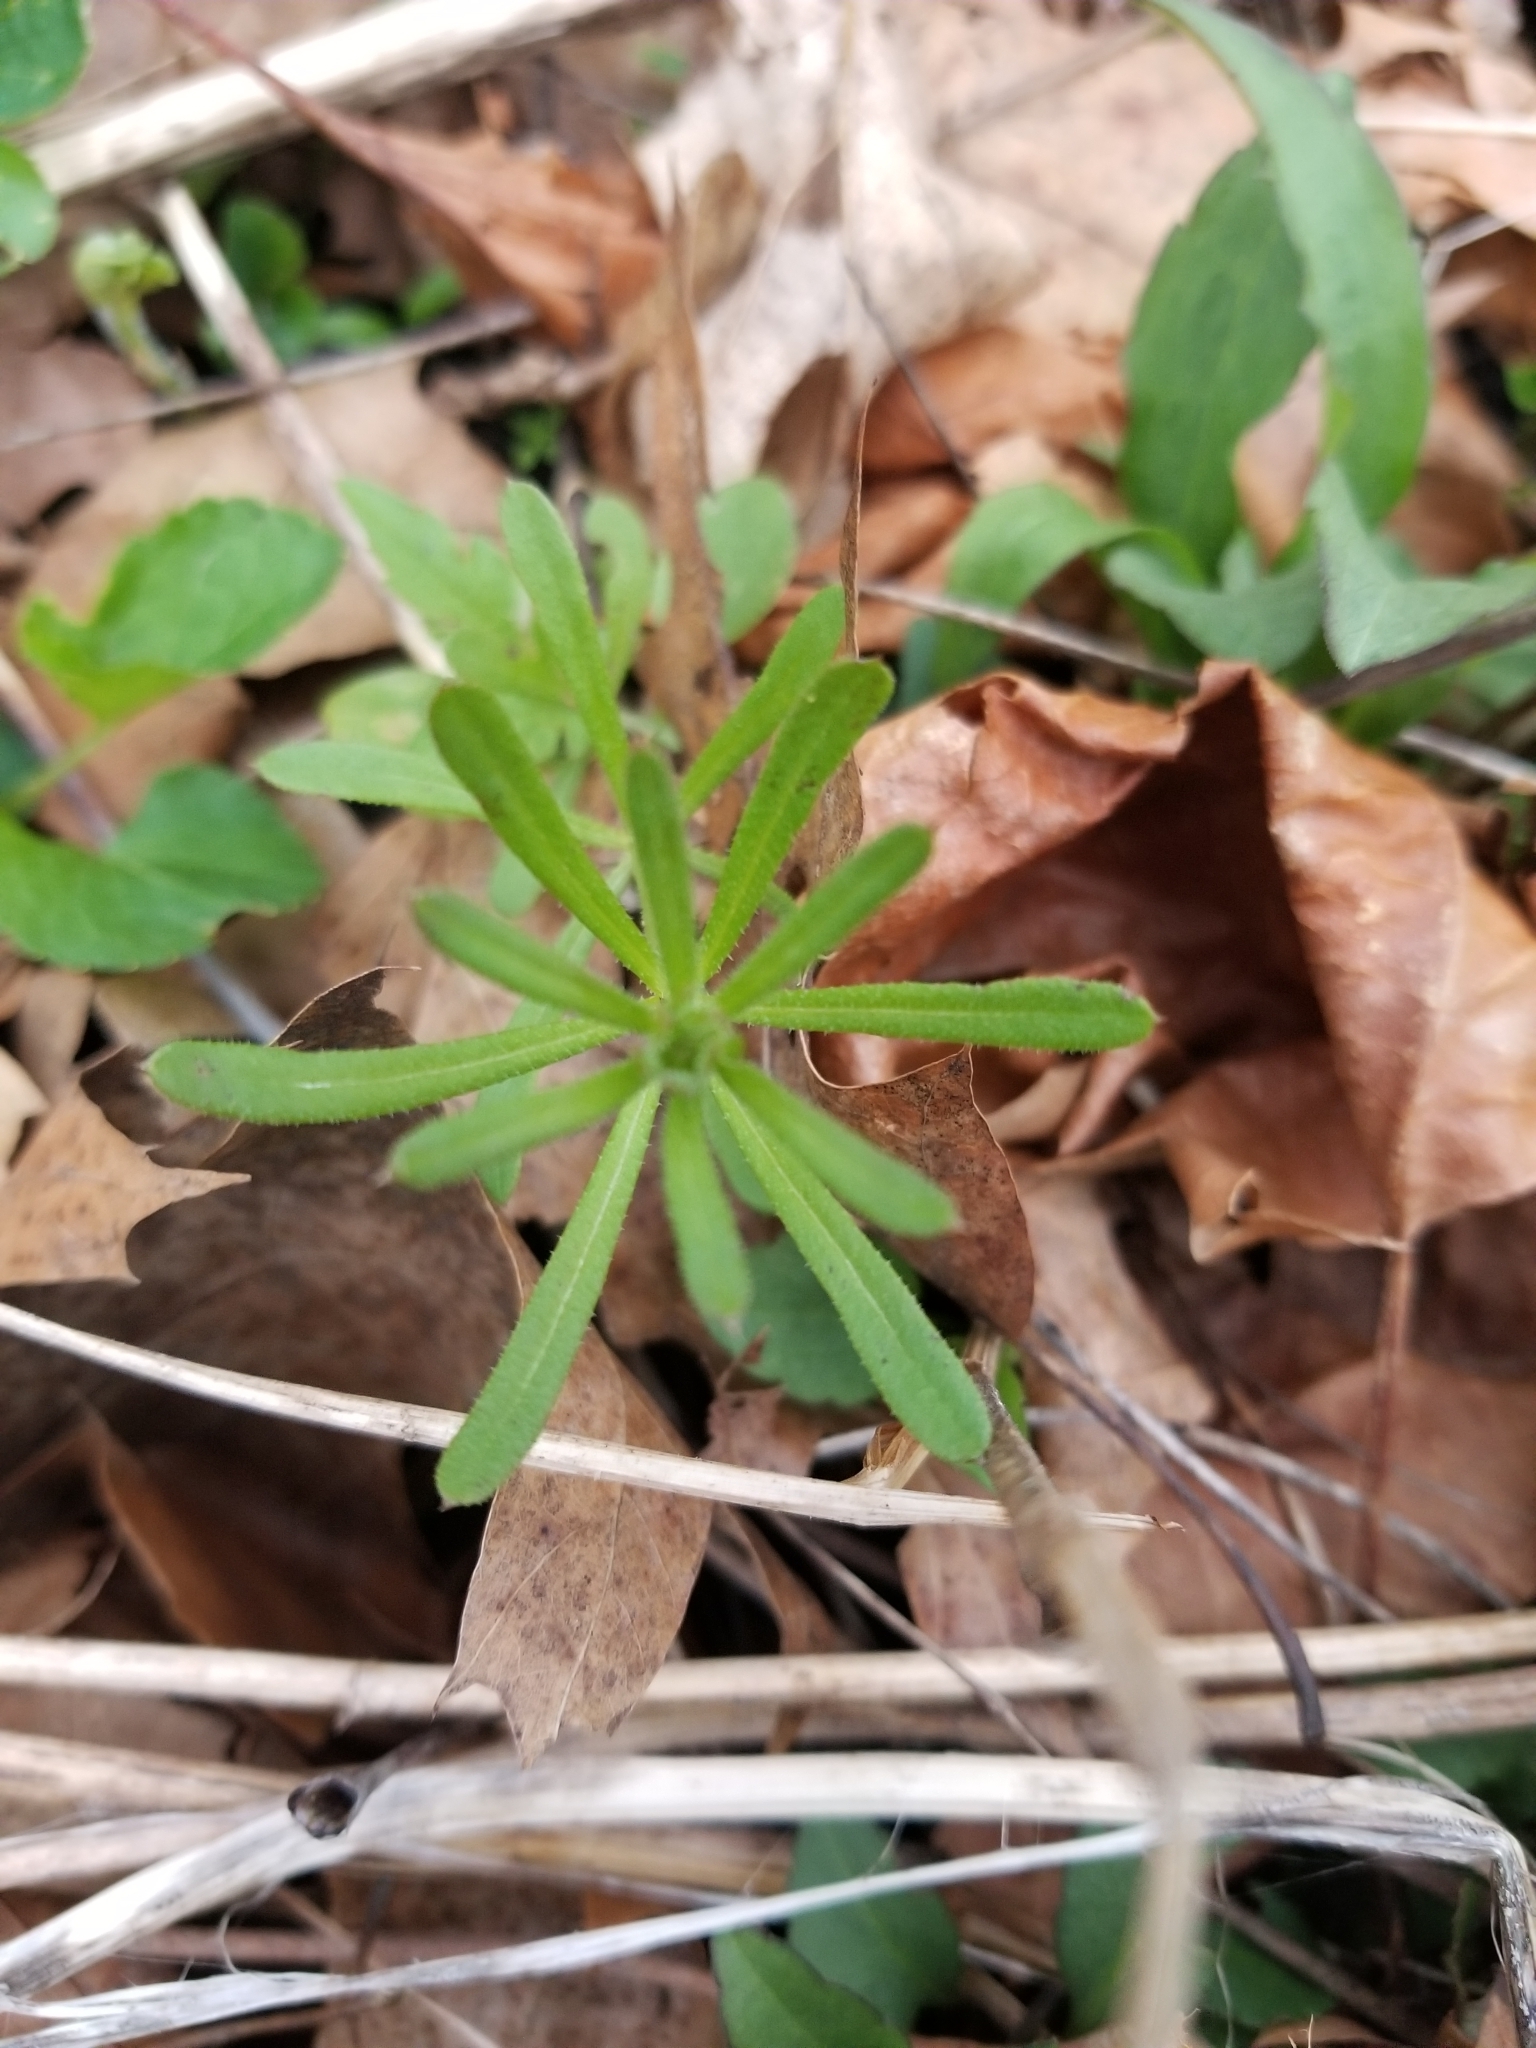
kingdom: Plantae
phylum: Tracheophyta
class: Magnoliopsida
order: Gentianales
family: Rubiaceae
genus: Galium
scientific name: Galium aparine
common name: Cleavers
